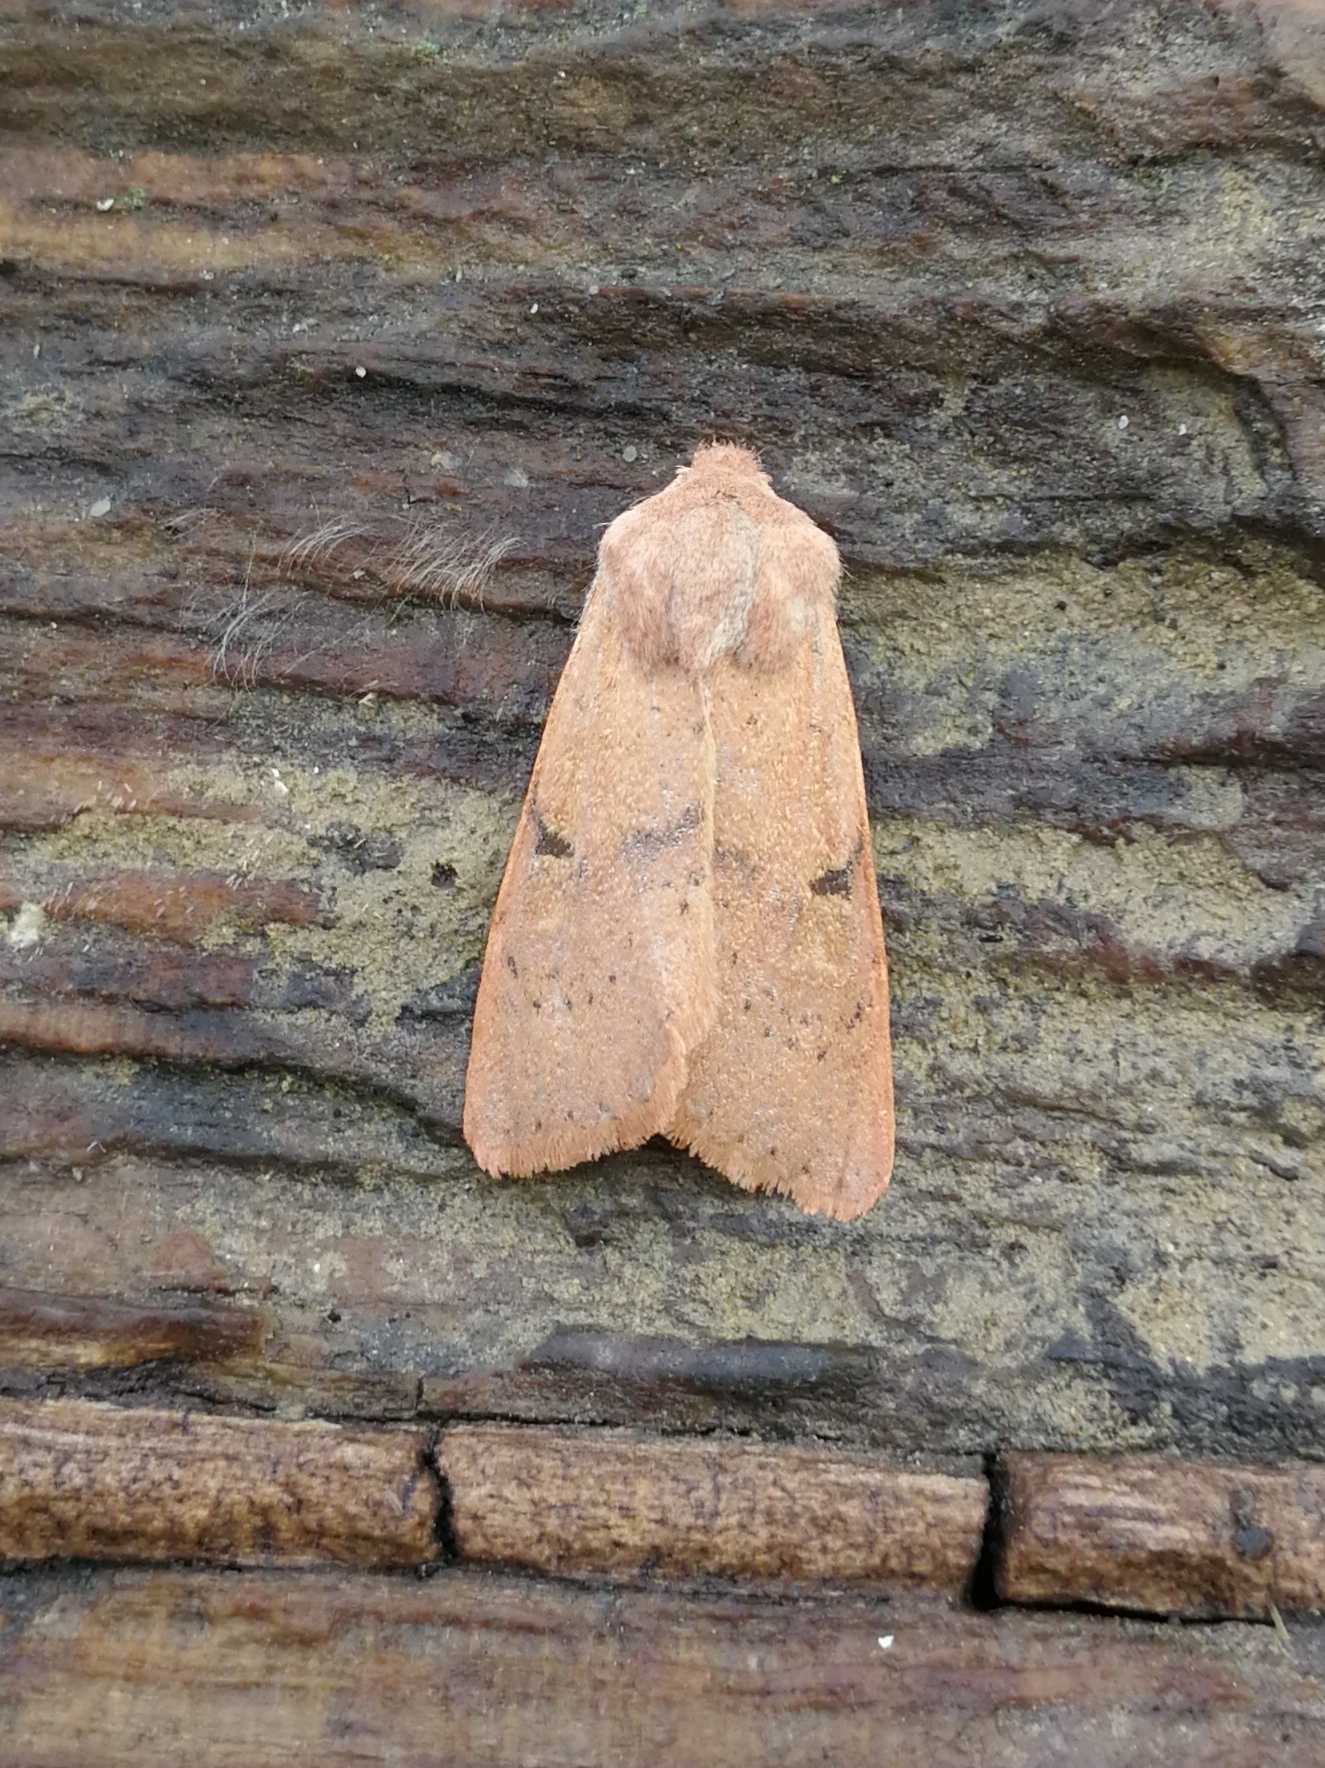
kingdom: Animalia
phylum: Arthropoda
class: Insecta
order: Lepidoptera
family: Noctuidae
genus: Ammopolia
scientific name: Ammopolia witzenmanni
